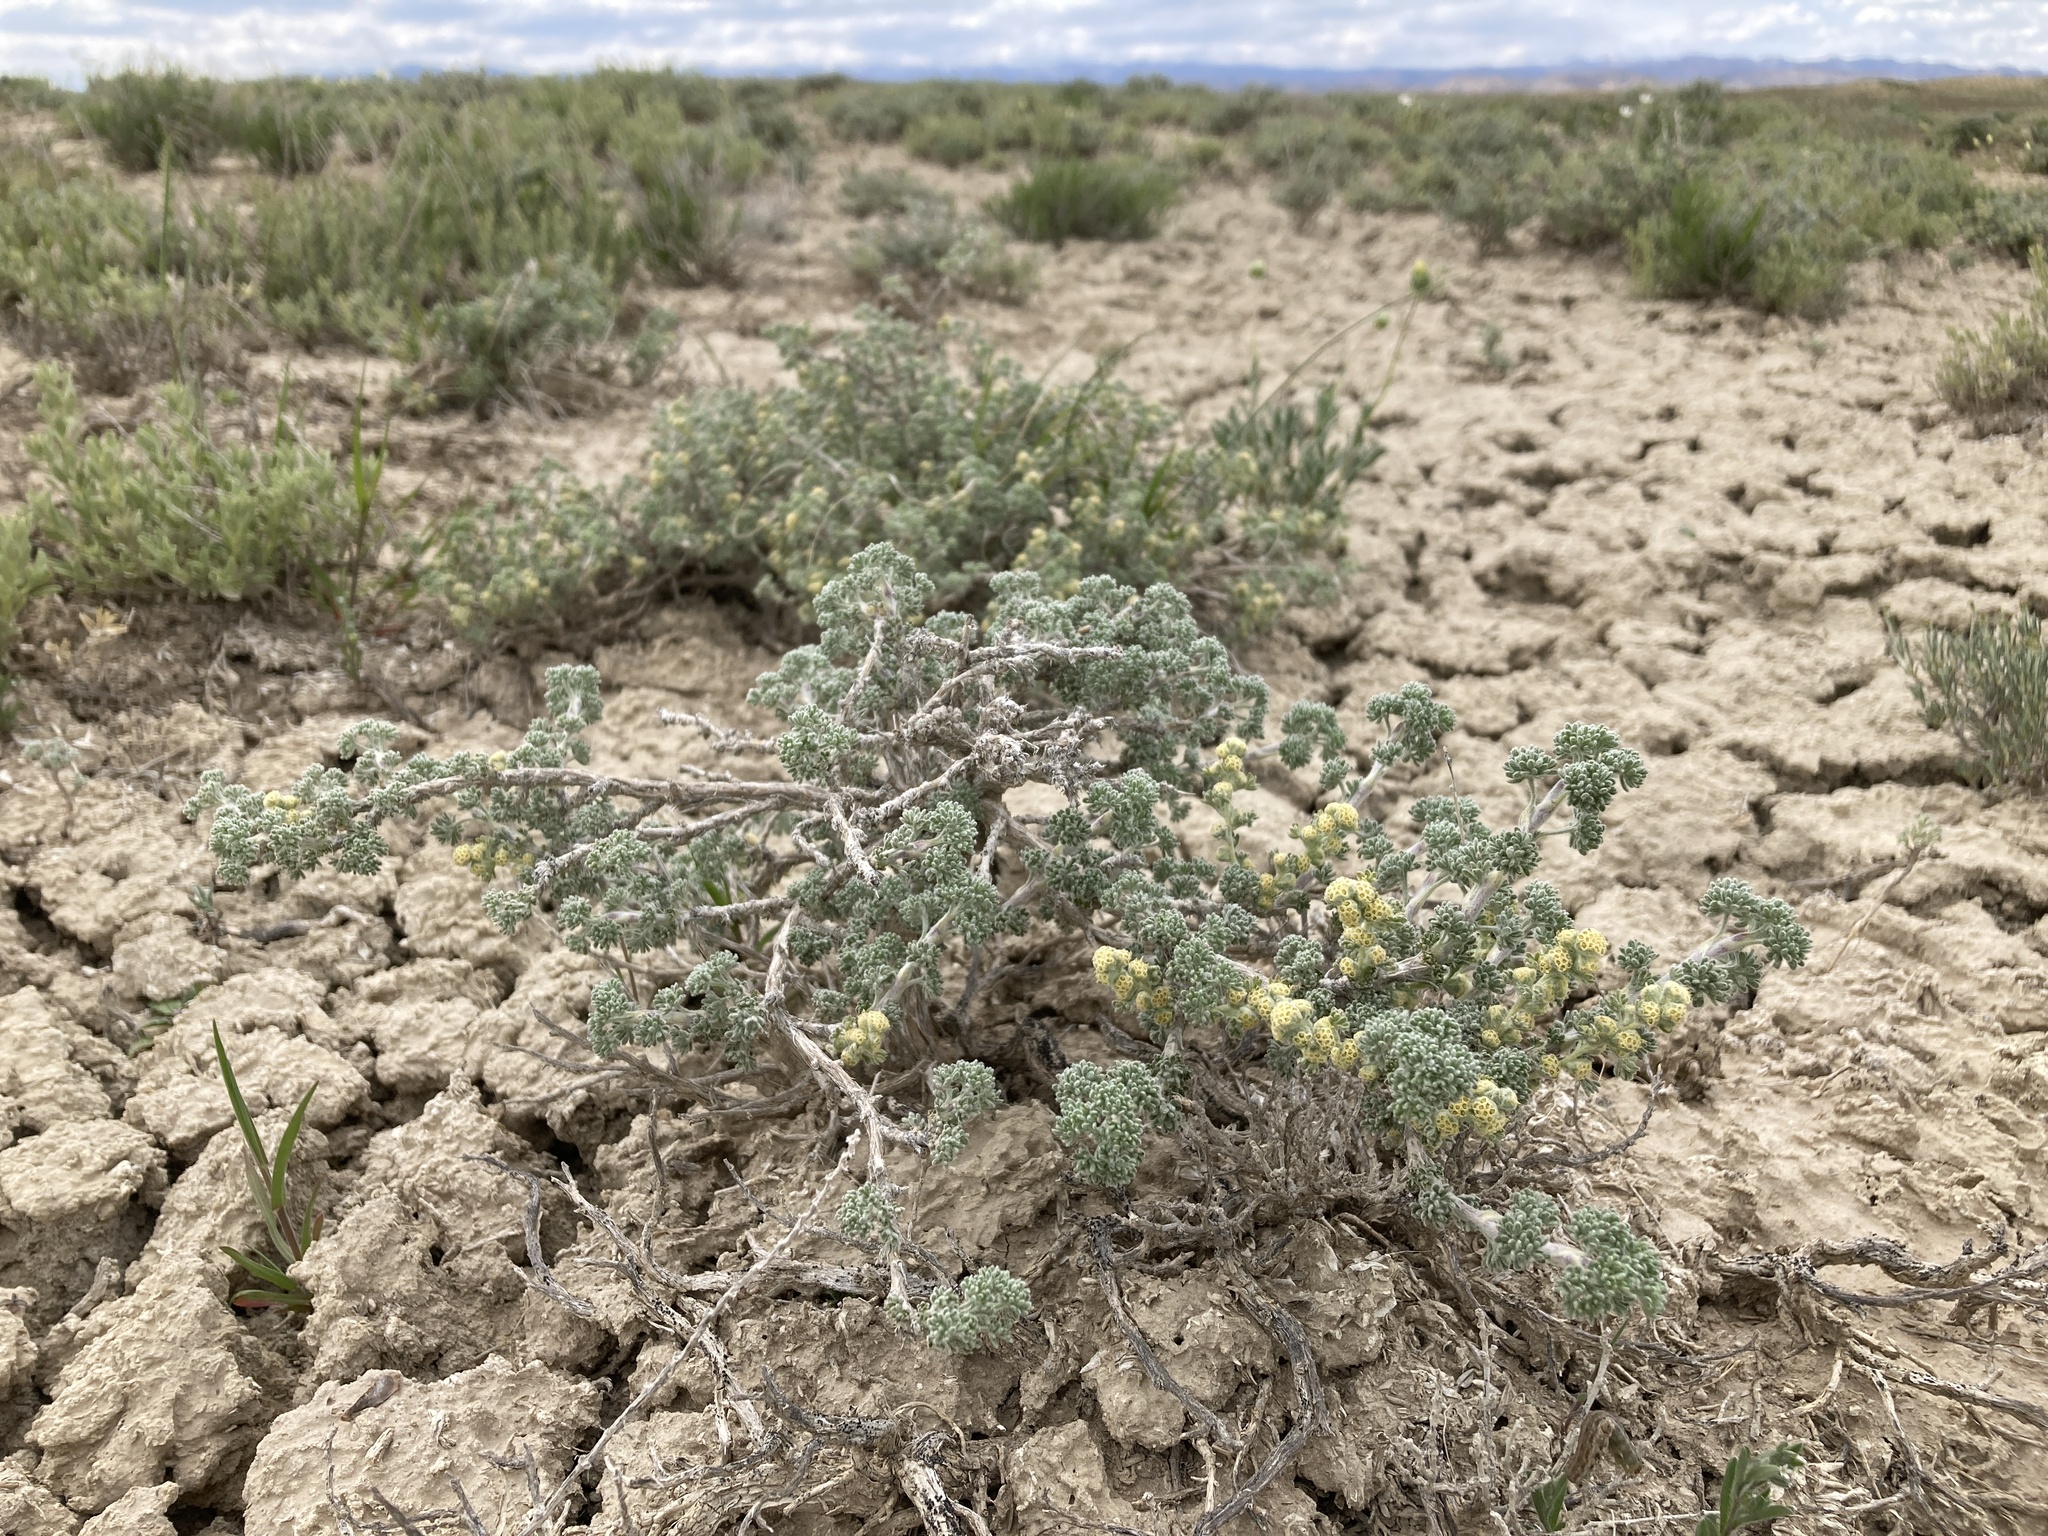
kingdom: Plantae
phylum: Tracheophyta
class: Magnoliopsida
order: Asterales
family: Asteraceae
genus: Artemisia
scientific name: Artemisia spinescens
